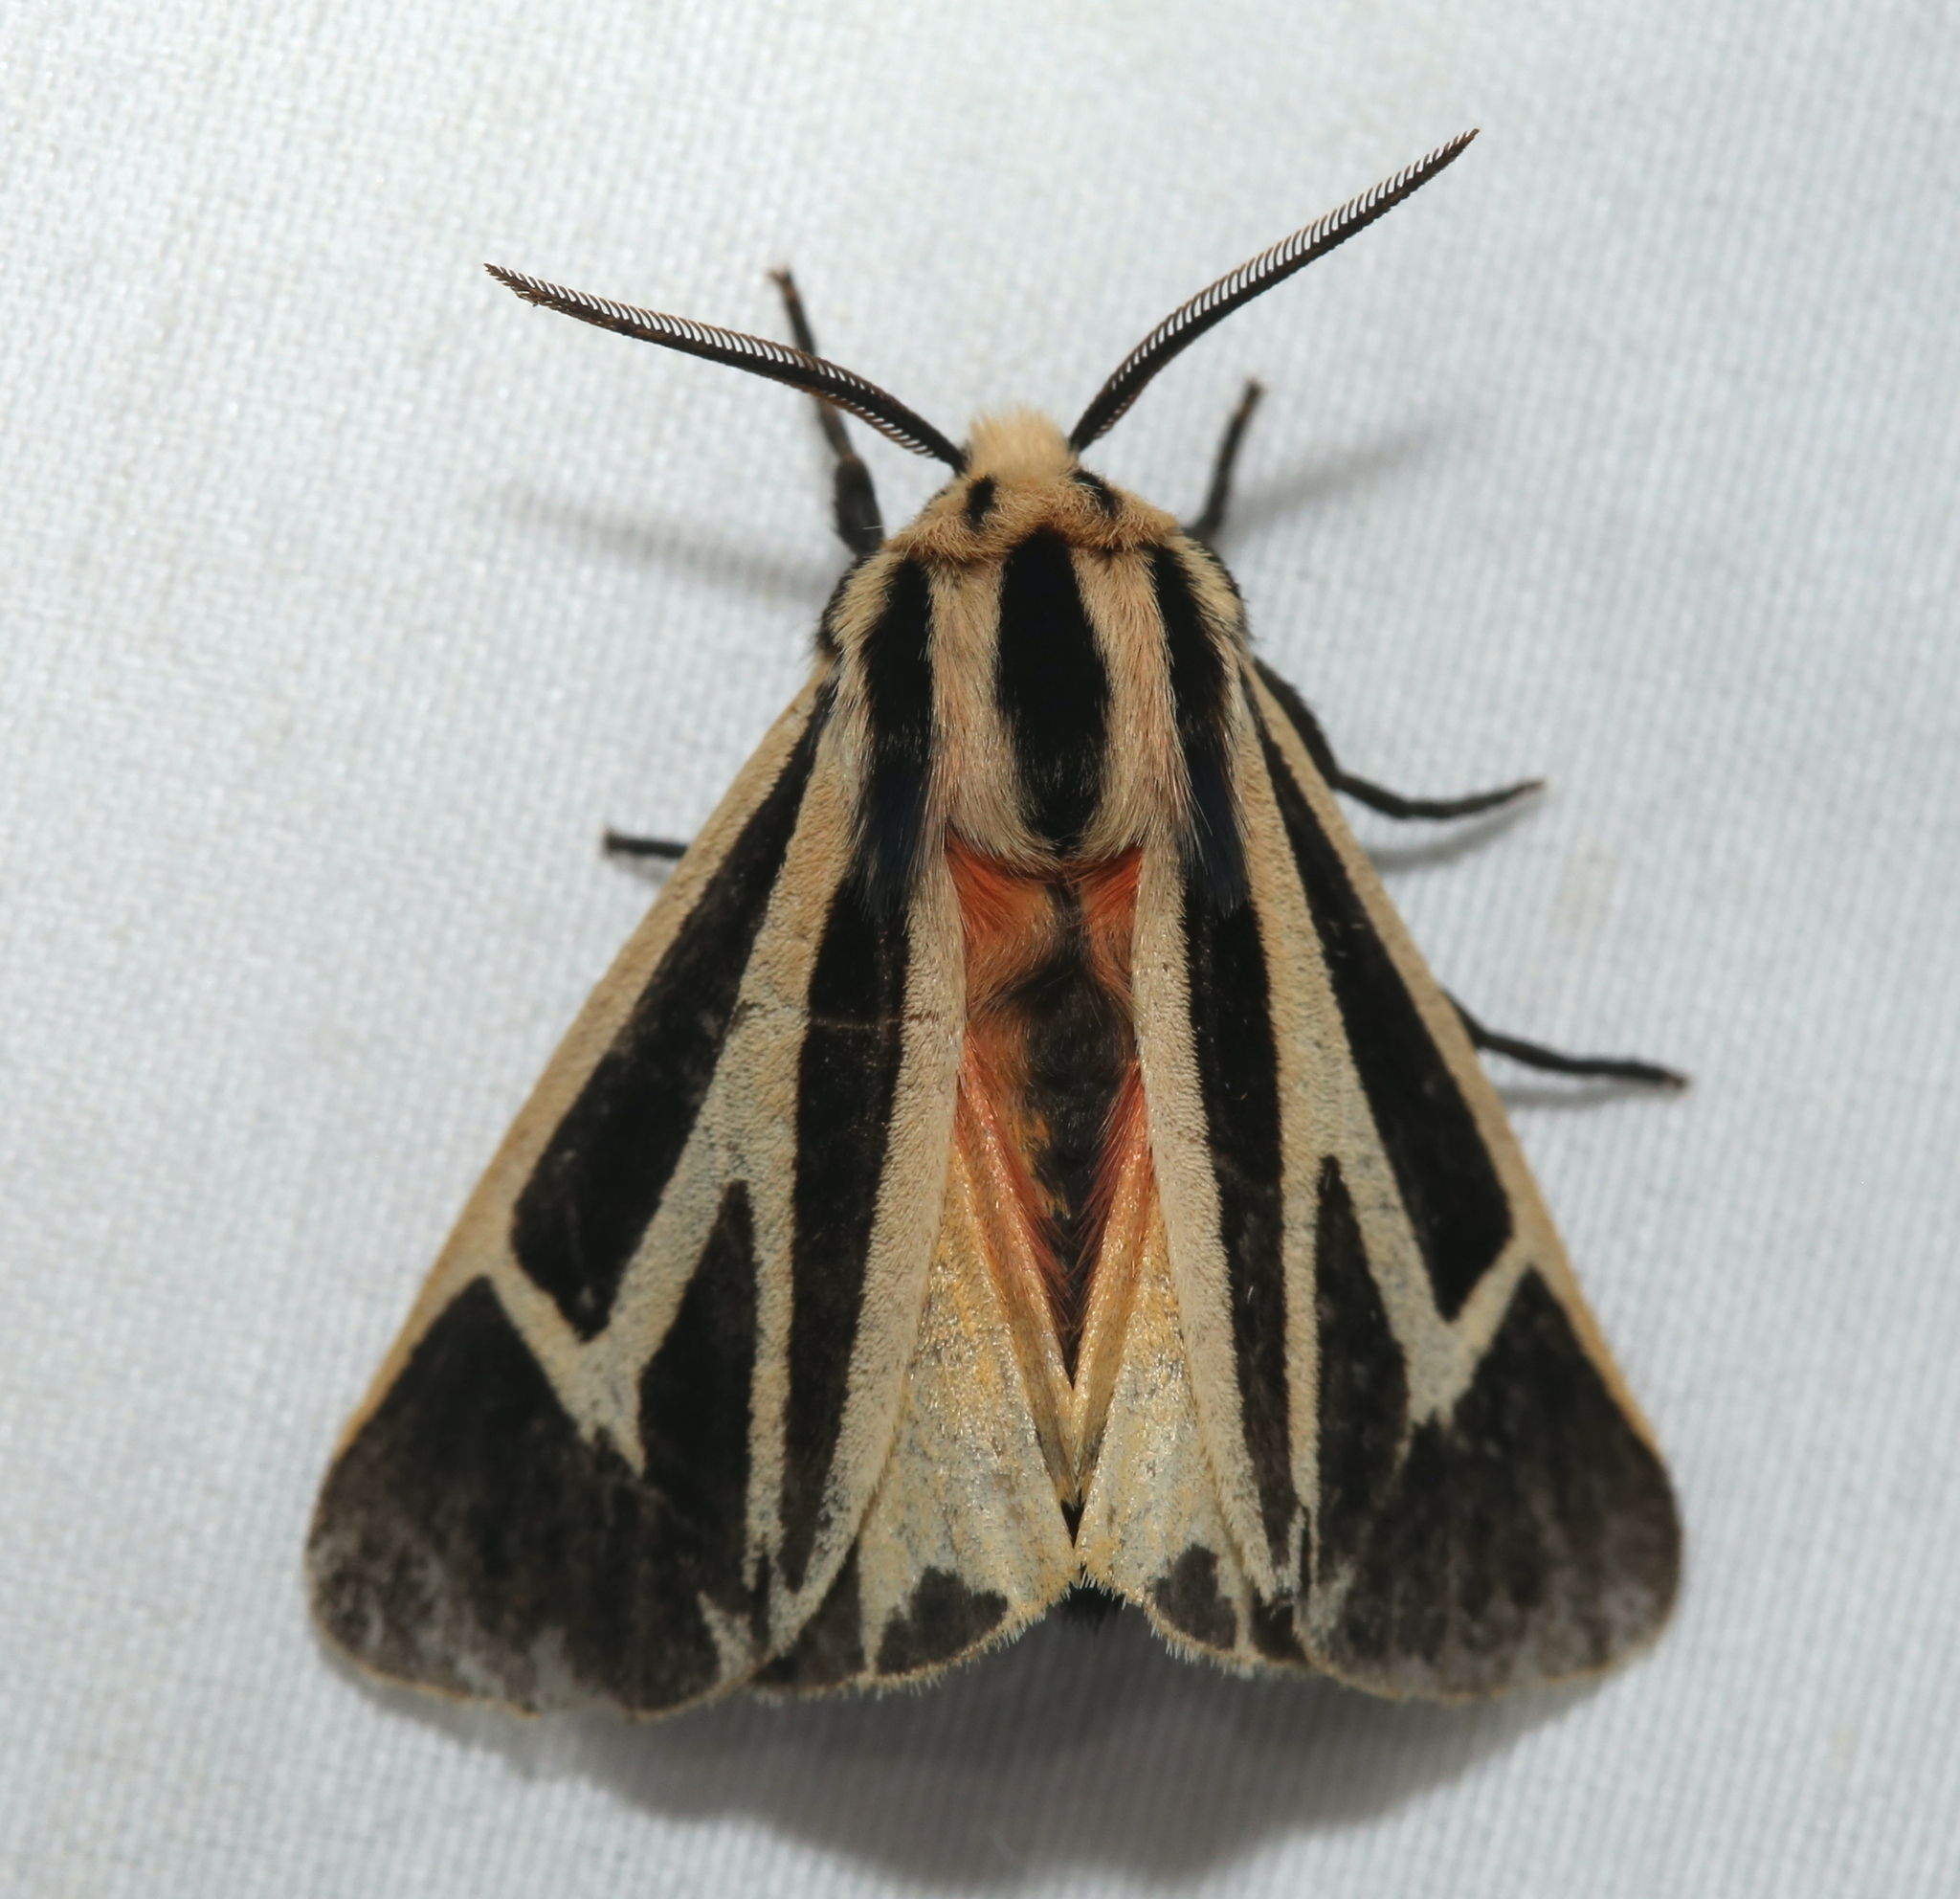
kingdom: Animalia
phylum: Arthropoda
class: Insecta
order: Lepidoptera
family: Erebidae
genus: Apantesis
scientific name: Apantesis phalerata
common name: Harnessed tiger moth
